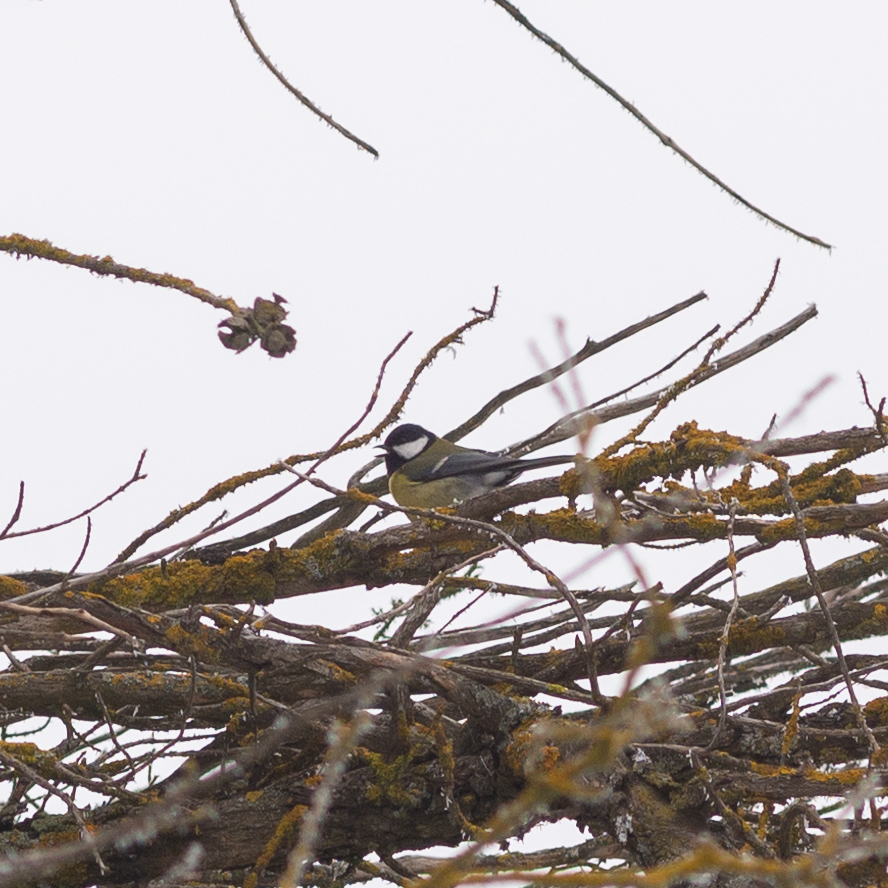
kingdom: Animalia
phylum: Chordata
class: Aves
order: Passeriformes
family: Paridae
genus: Parus
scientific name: Parus major
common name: Great tit
